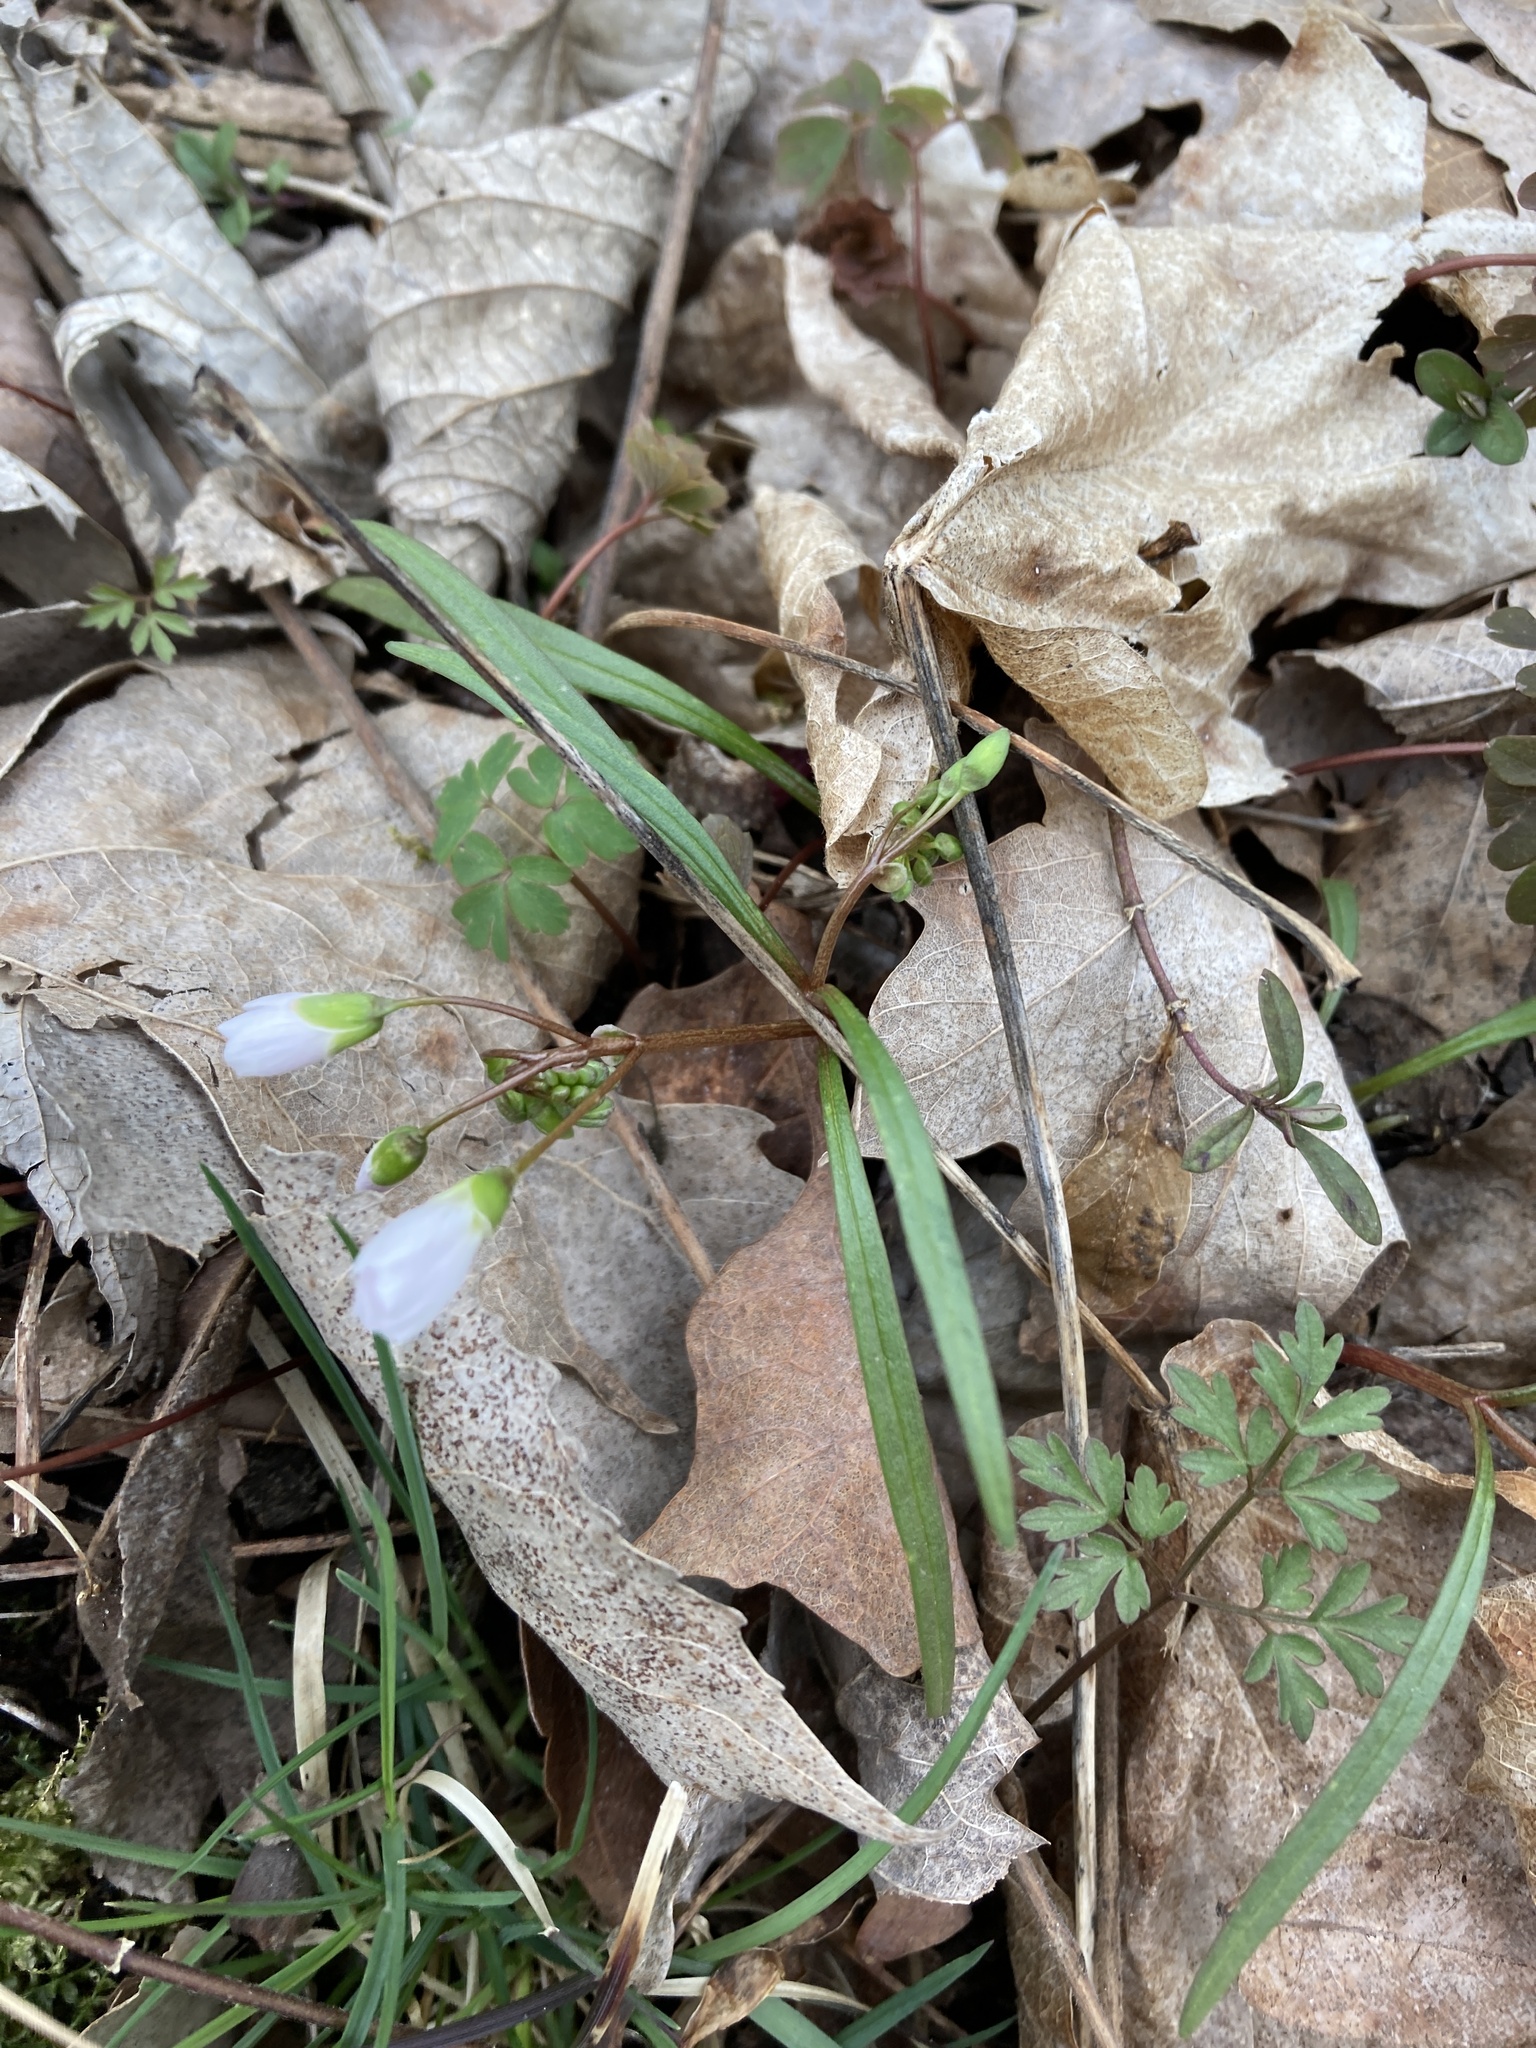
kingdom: Plantae
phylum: Tracheophyta
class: Magnoliopsida
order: Caryophyllales
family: Montiaceae
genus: Claytonia
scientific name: Claytonia virginica
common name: Virginia springbeauty
